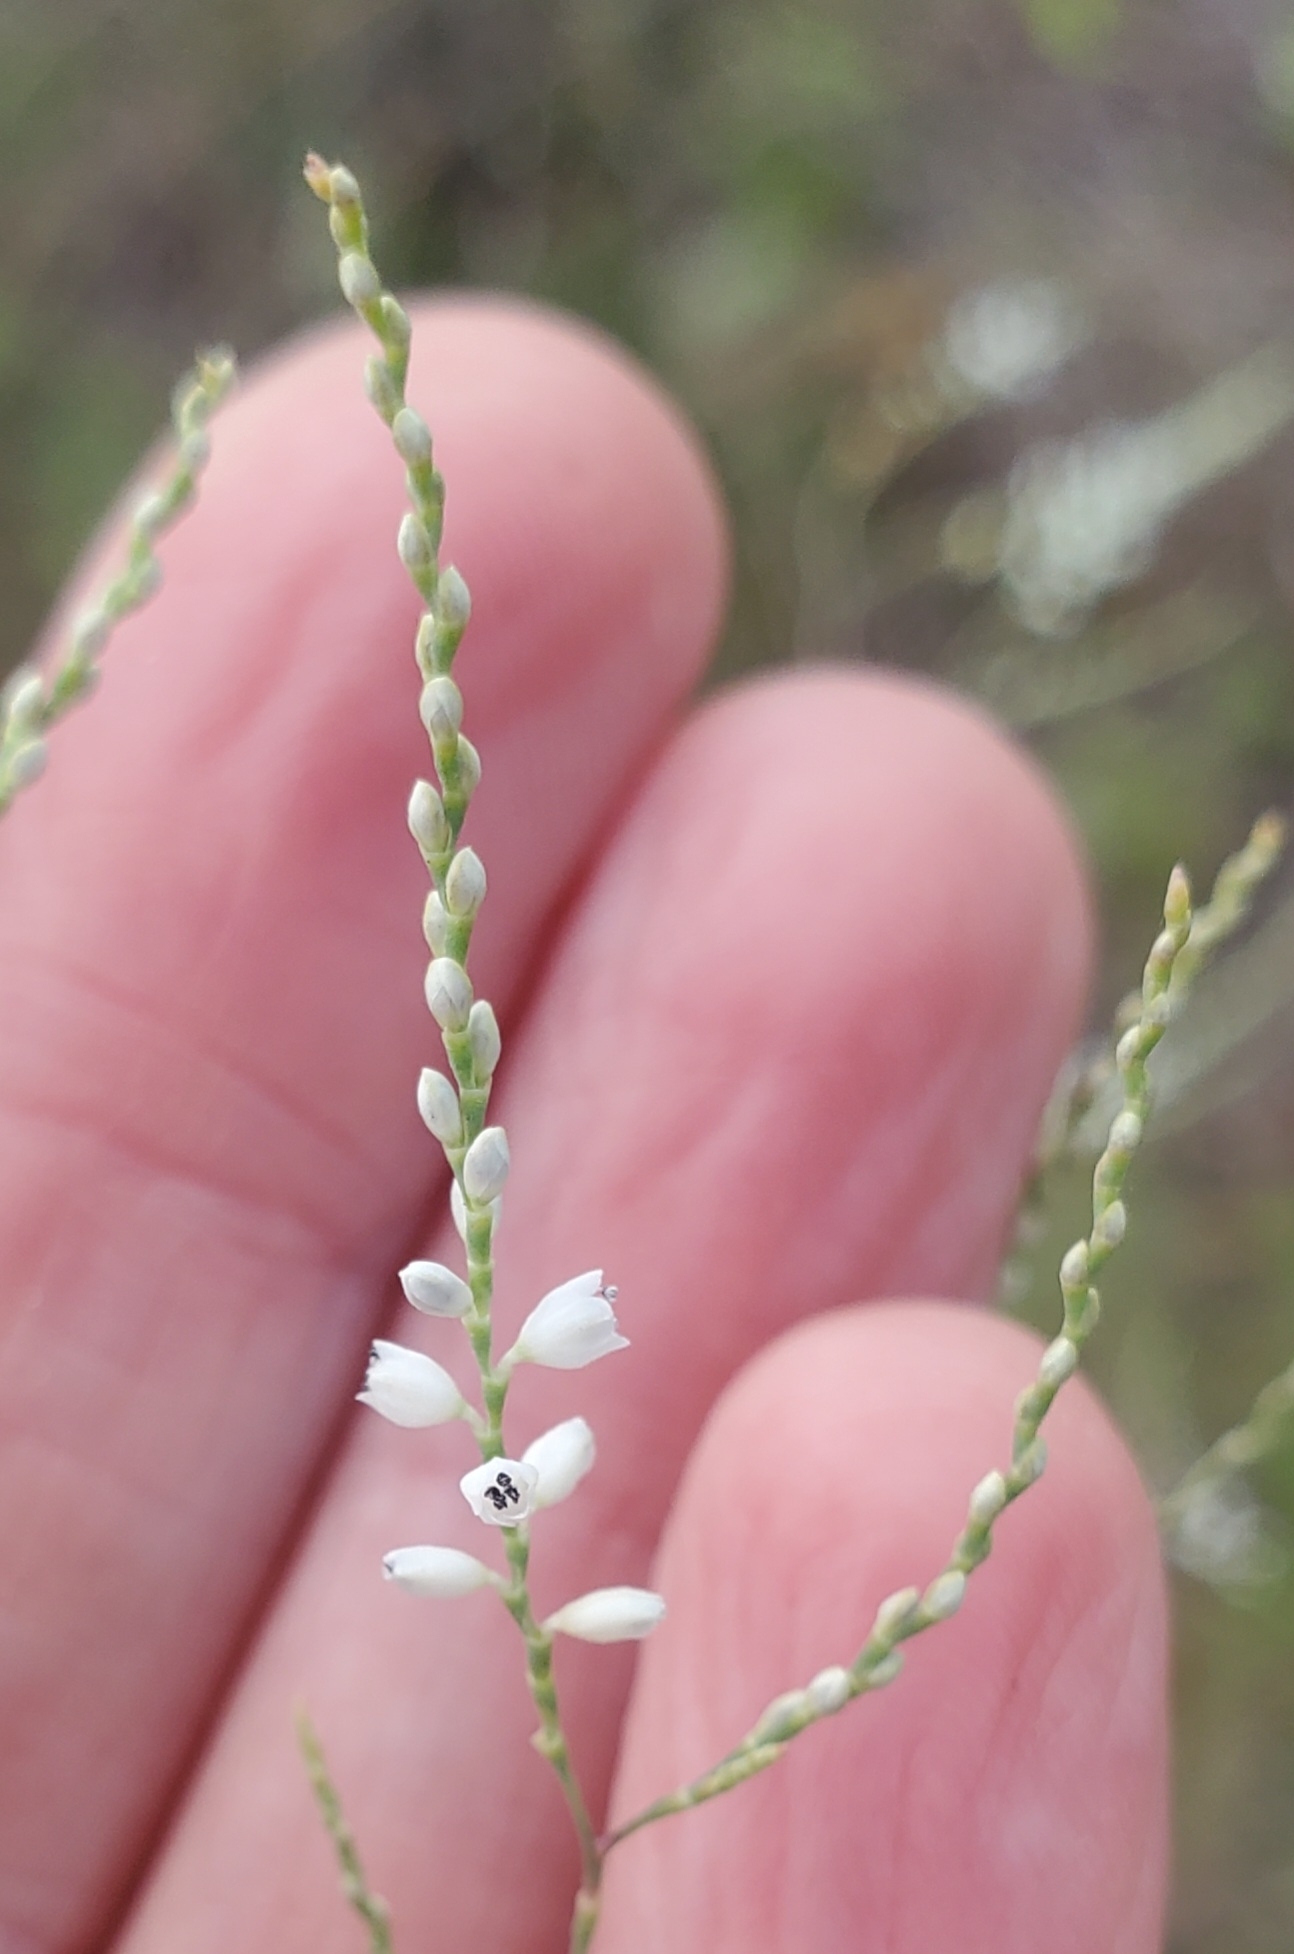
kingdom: Plantae
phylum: Tracheophyta
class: Magnoliopsida
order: Caryophyllales
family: Polygonaceae
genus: Polygonella
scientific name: Polygonella gracilis
